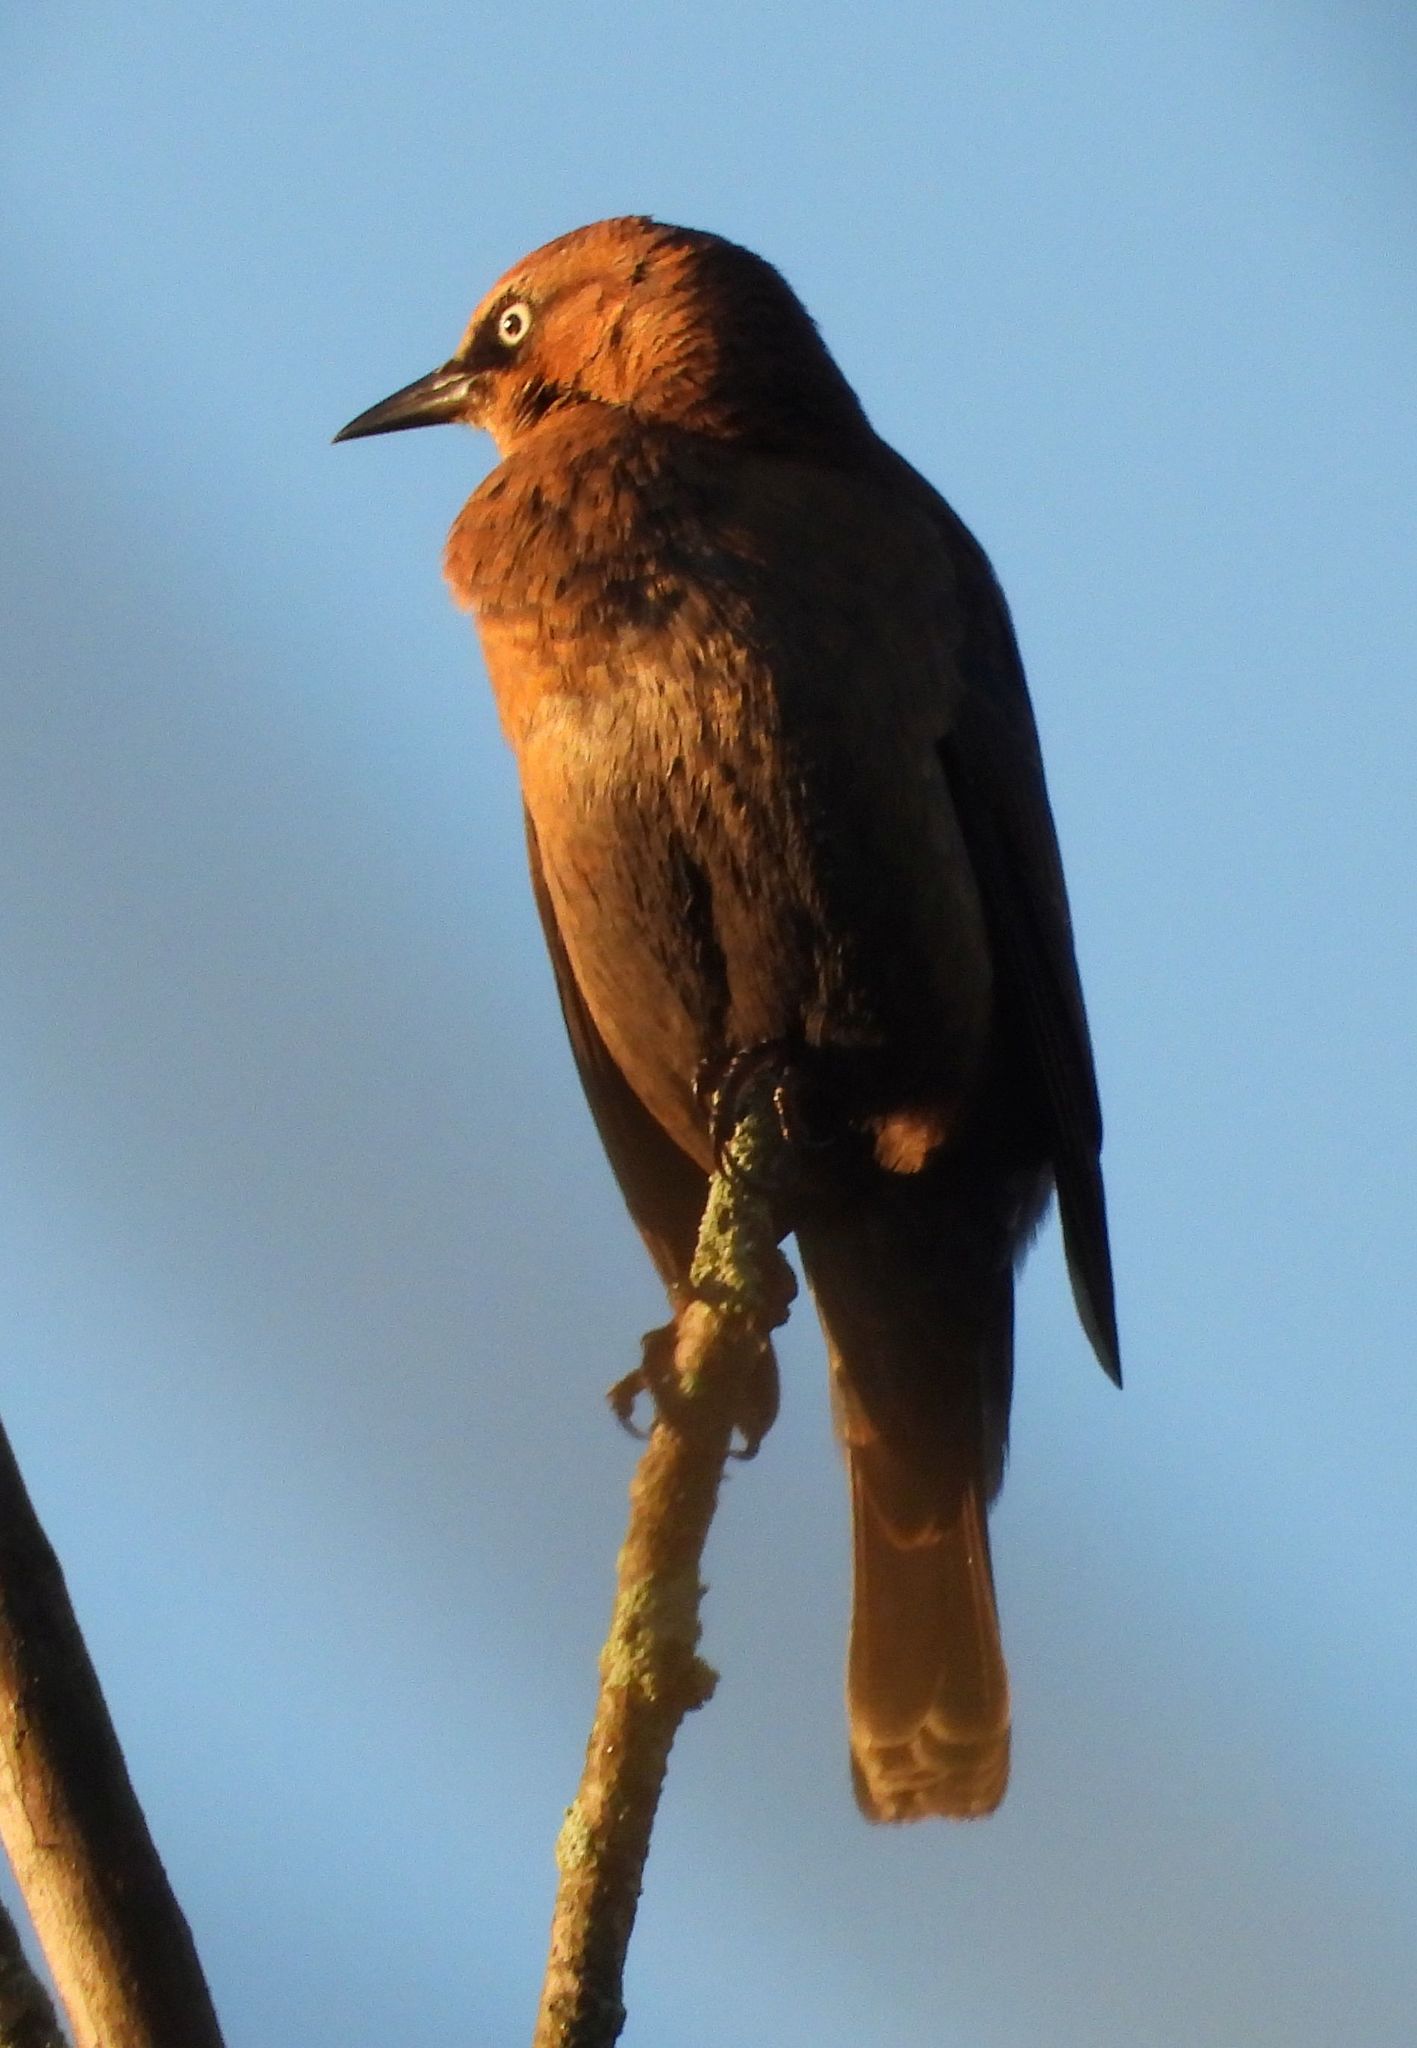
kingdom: Animalia
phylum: Chordata
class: Aves
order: Passeriformes
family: Icteridae
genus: Euphagus
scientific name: Euphagus carolinus
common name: Rusty blackbird
